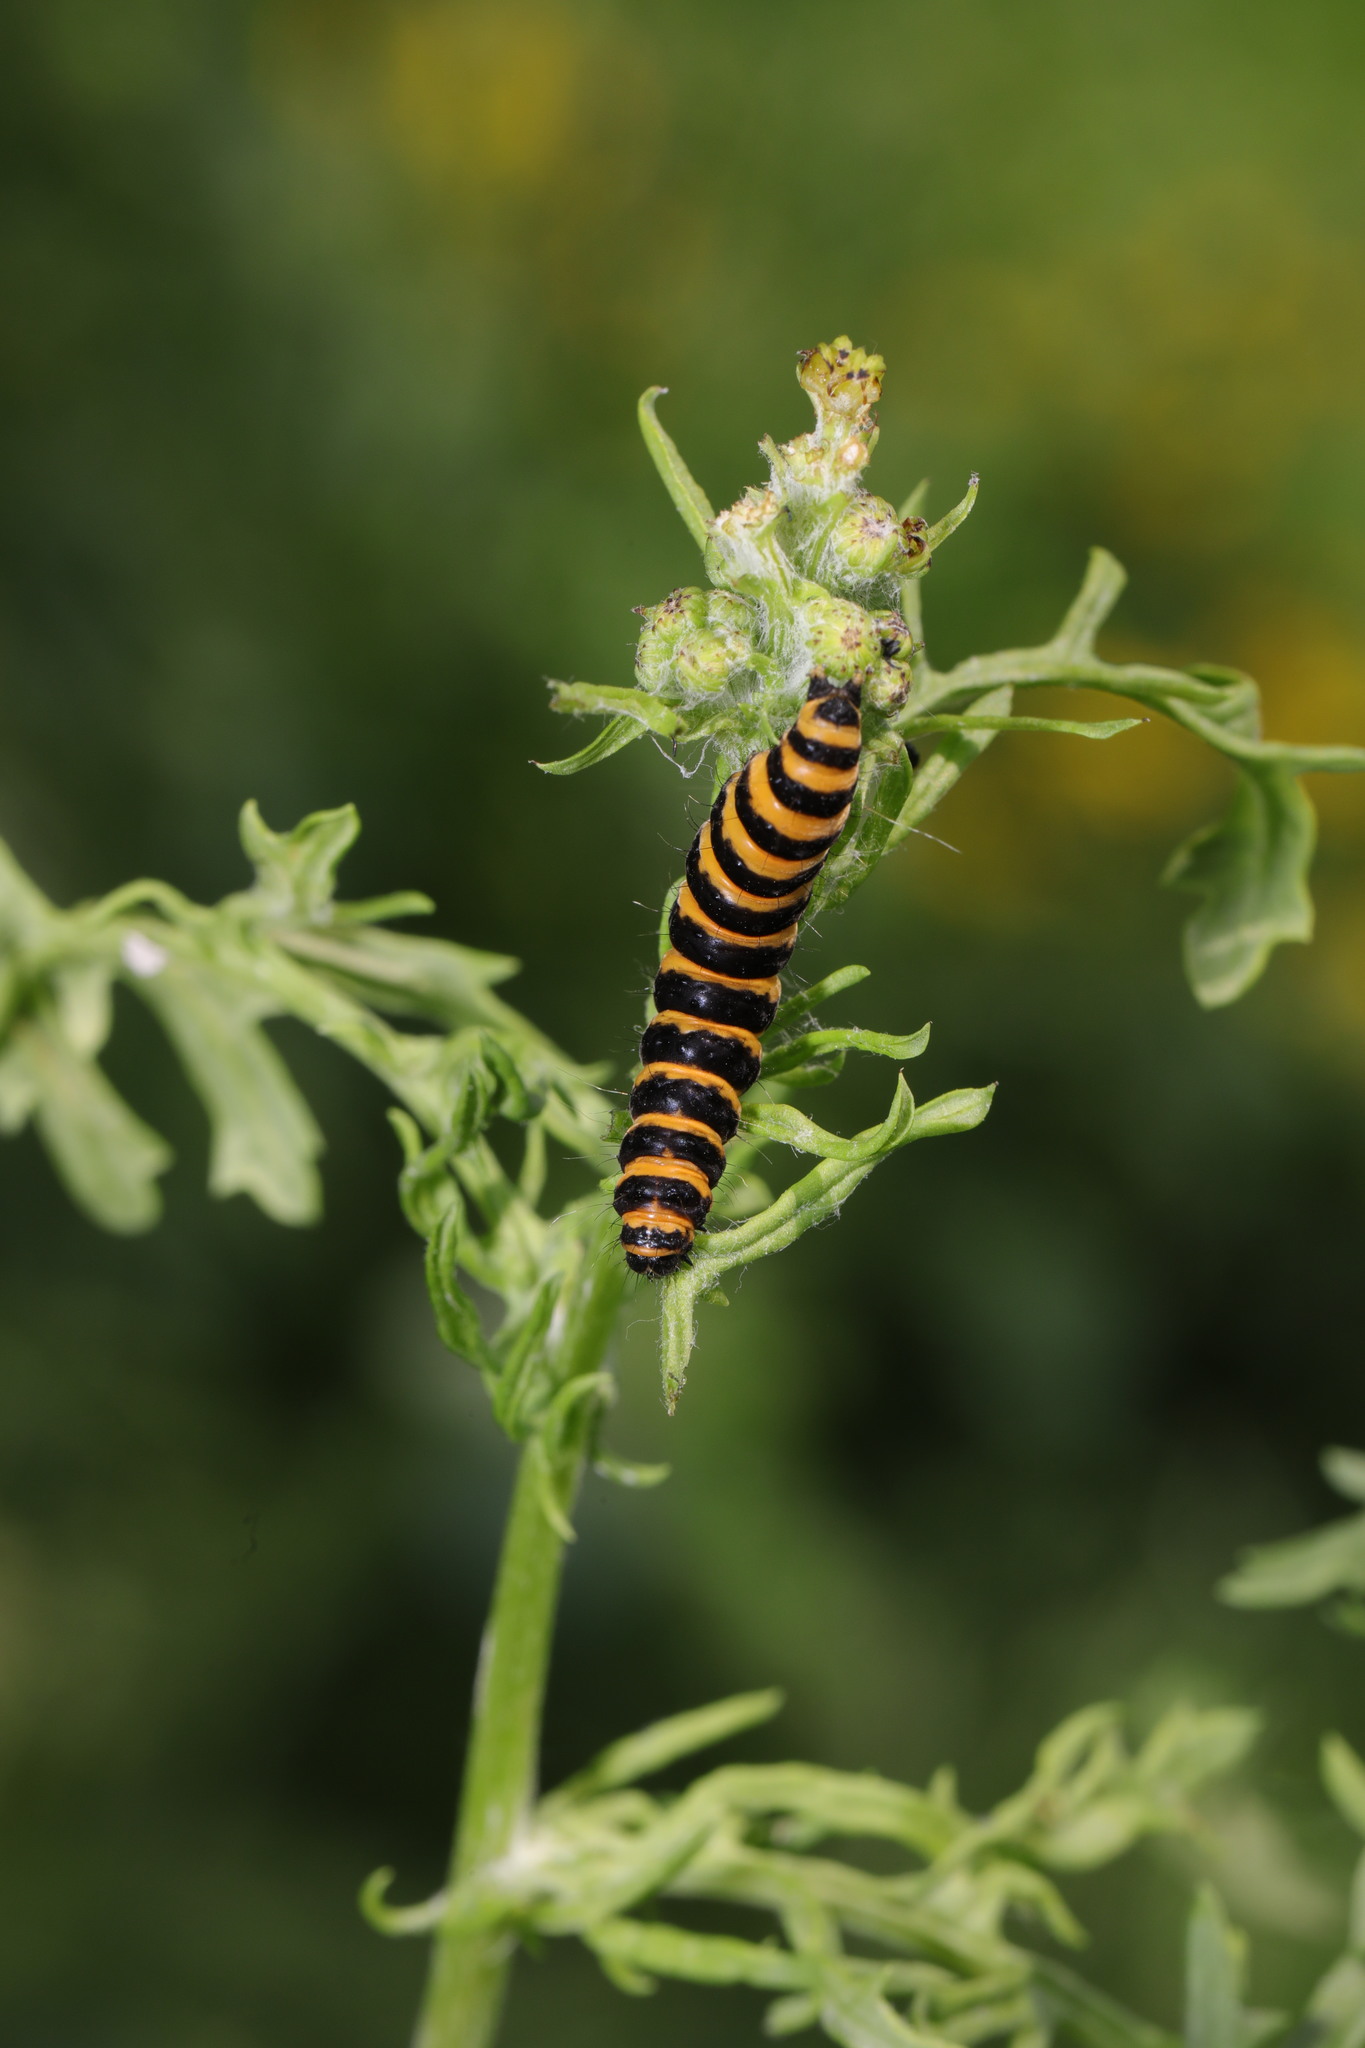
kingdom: Animalia
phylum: Arthropoda
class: Insecta
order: Lepidoptera
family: Erebidae
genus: Tyria
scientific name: Tyria jacobaeae
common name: Cinnabar
